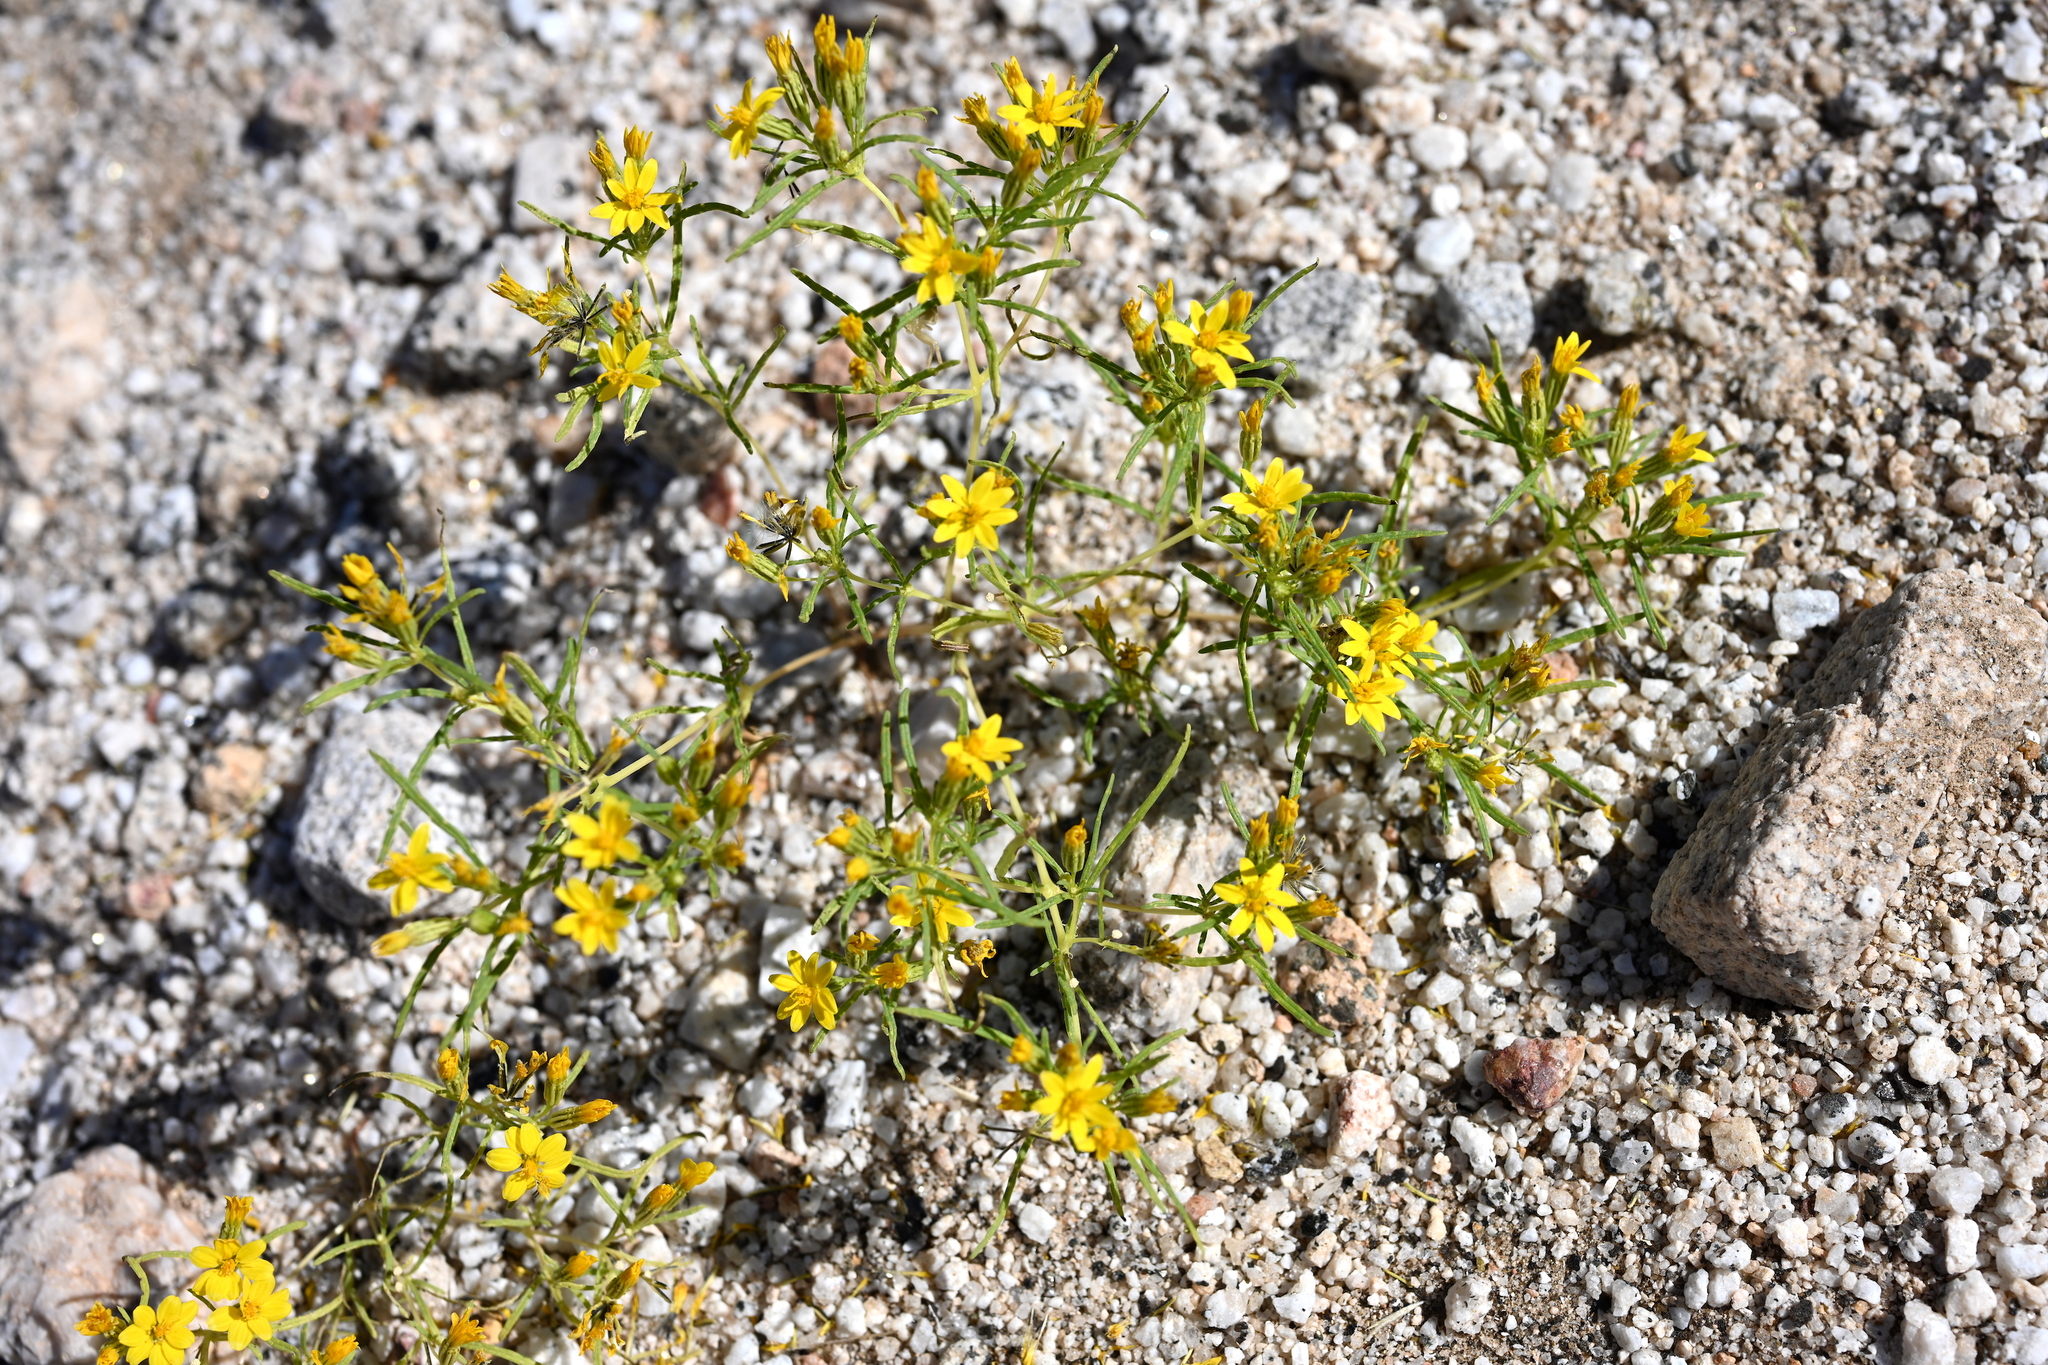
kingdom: Plantae
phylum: Tracheophyta
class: Magnoliopsida
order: Asterales
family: Asteraceae
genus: Pectis
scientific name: Pectis papposa
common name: Many-bristle chinchweed
